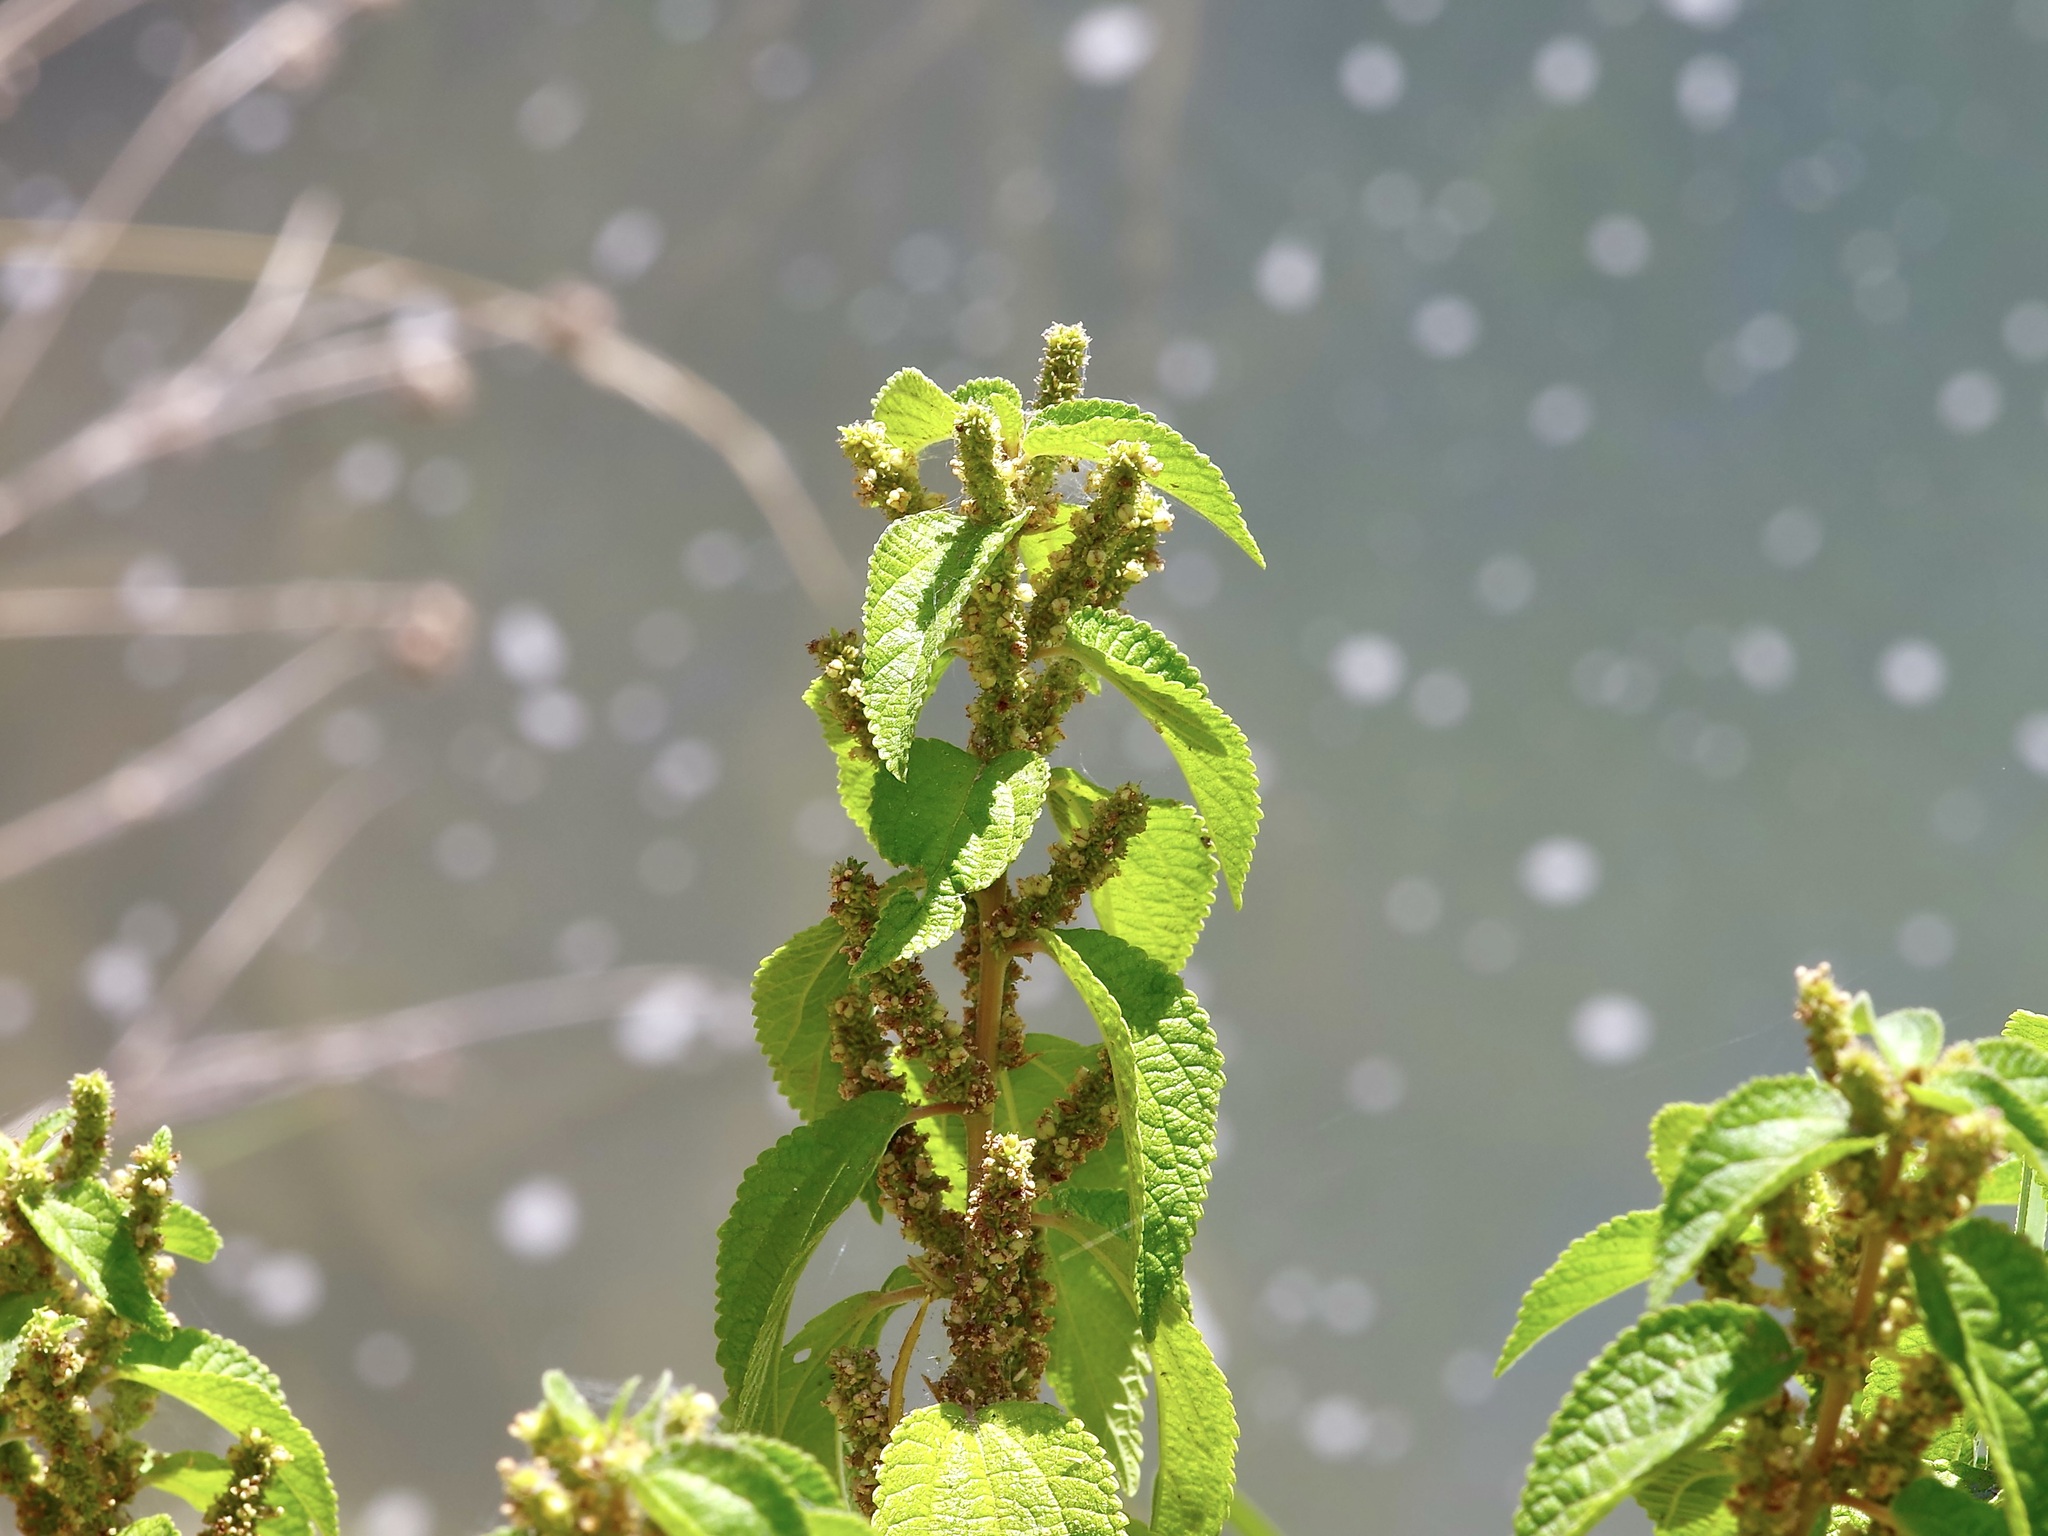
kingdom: Plantae
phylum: Tracheophyta
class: Magnoliopsida
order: Rosales
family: Urticaceae
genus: Boehmeria
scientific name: Boehmeria cylindrica
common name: Bog-hemp
